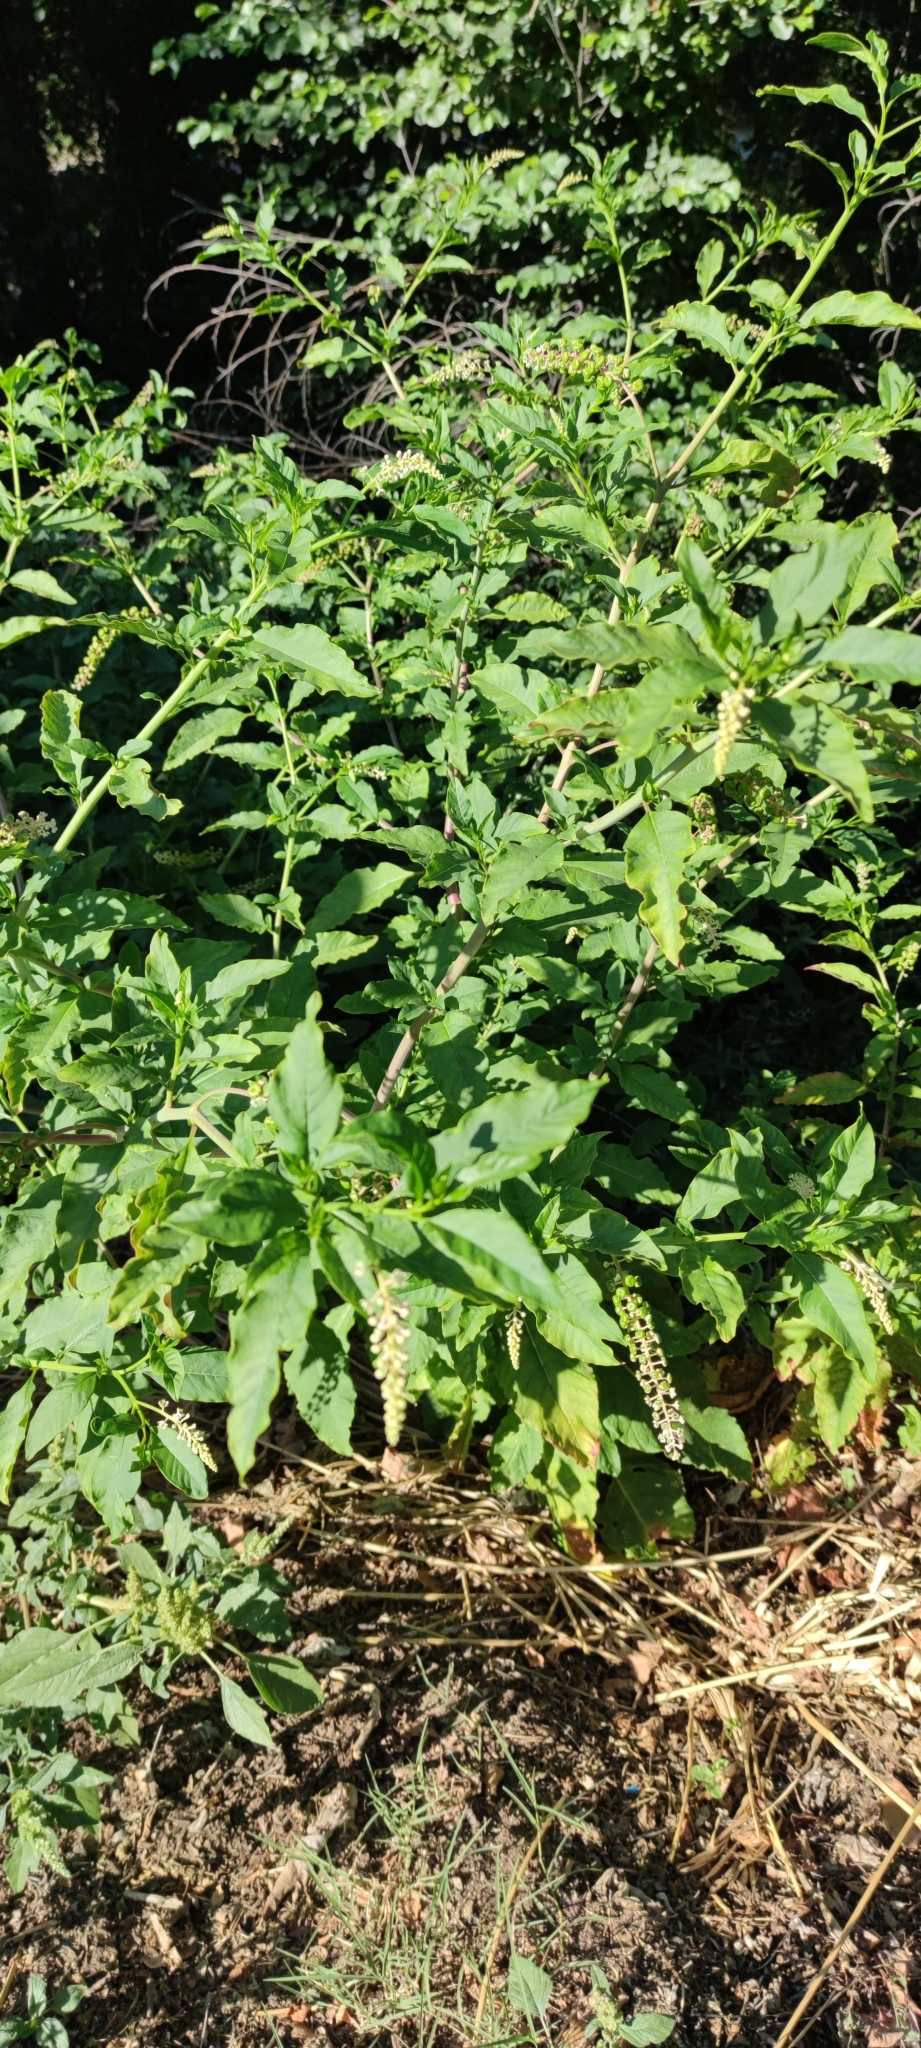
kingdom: Plantae
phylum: Tracheophyta
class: Magnoliopsida
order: Caryophyllales
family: Phytolaccaceae
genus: Phytolacca
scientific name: Phytolacca americana
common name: American pokeweed
